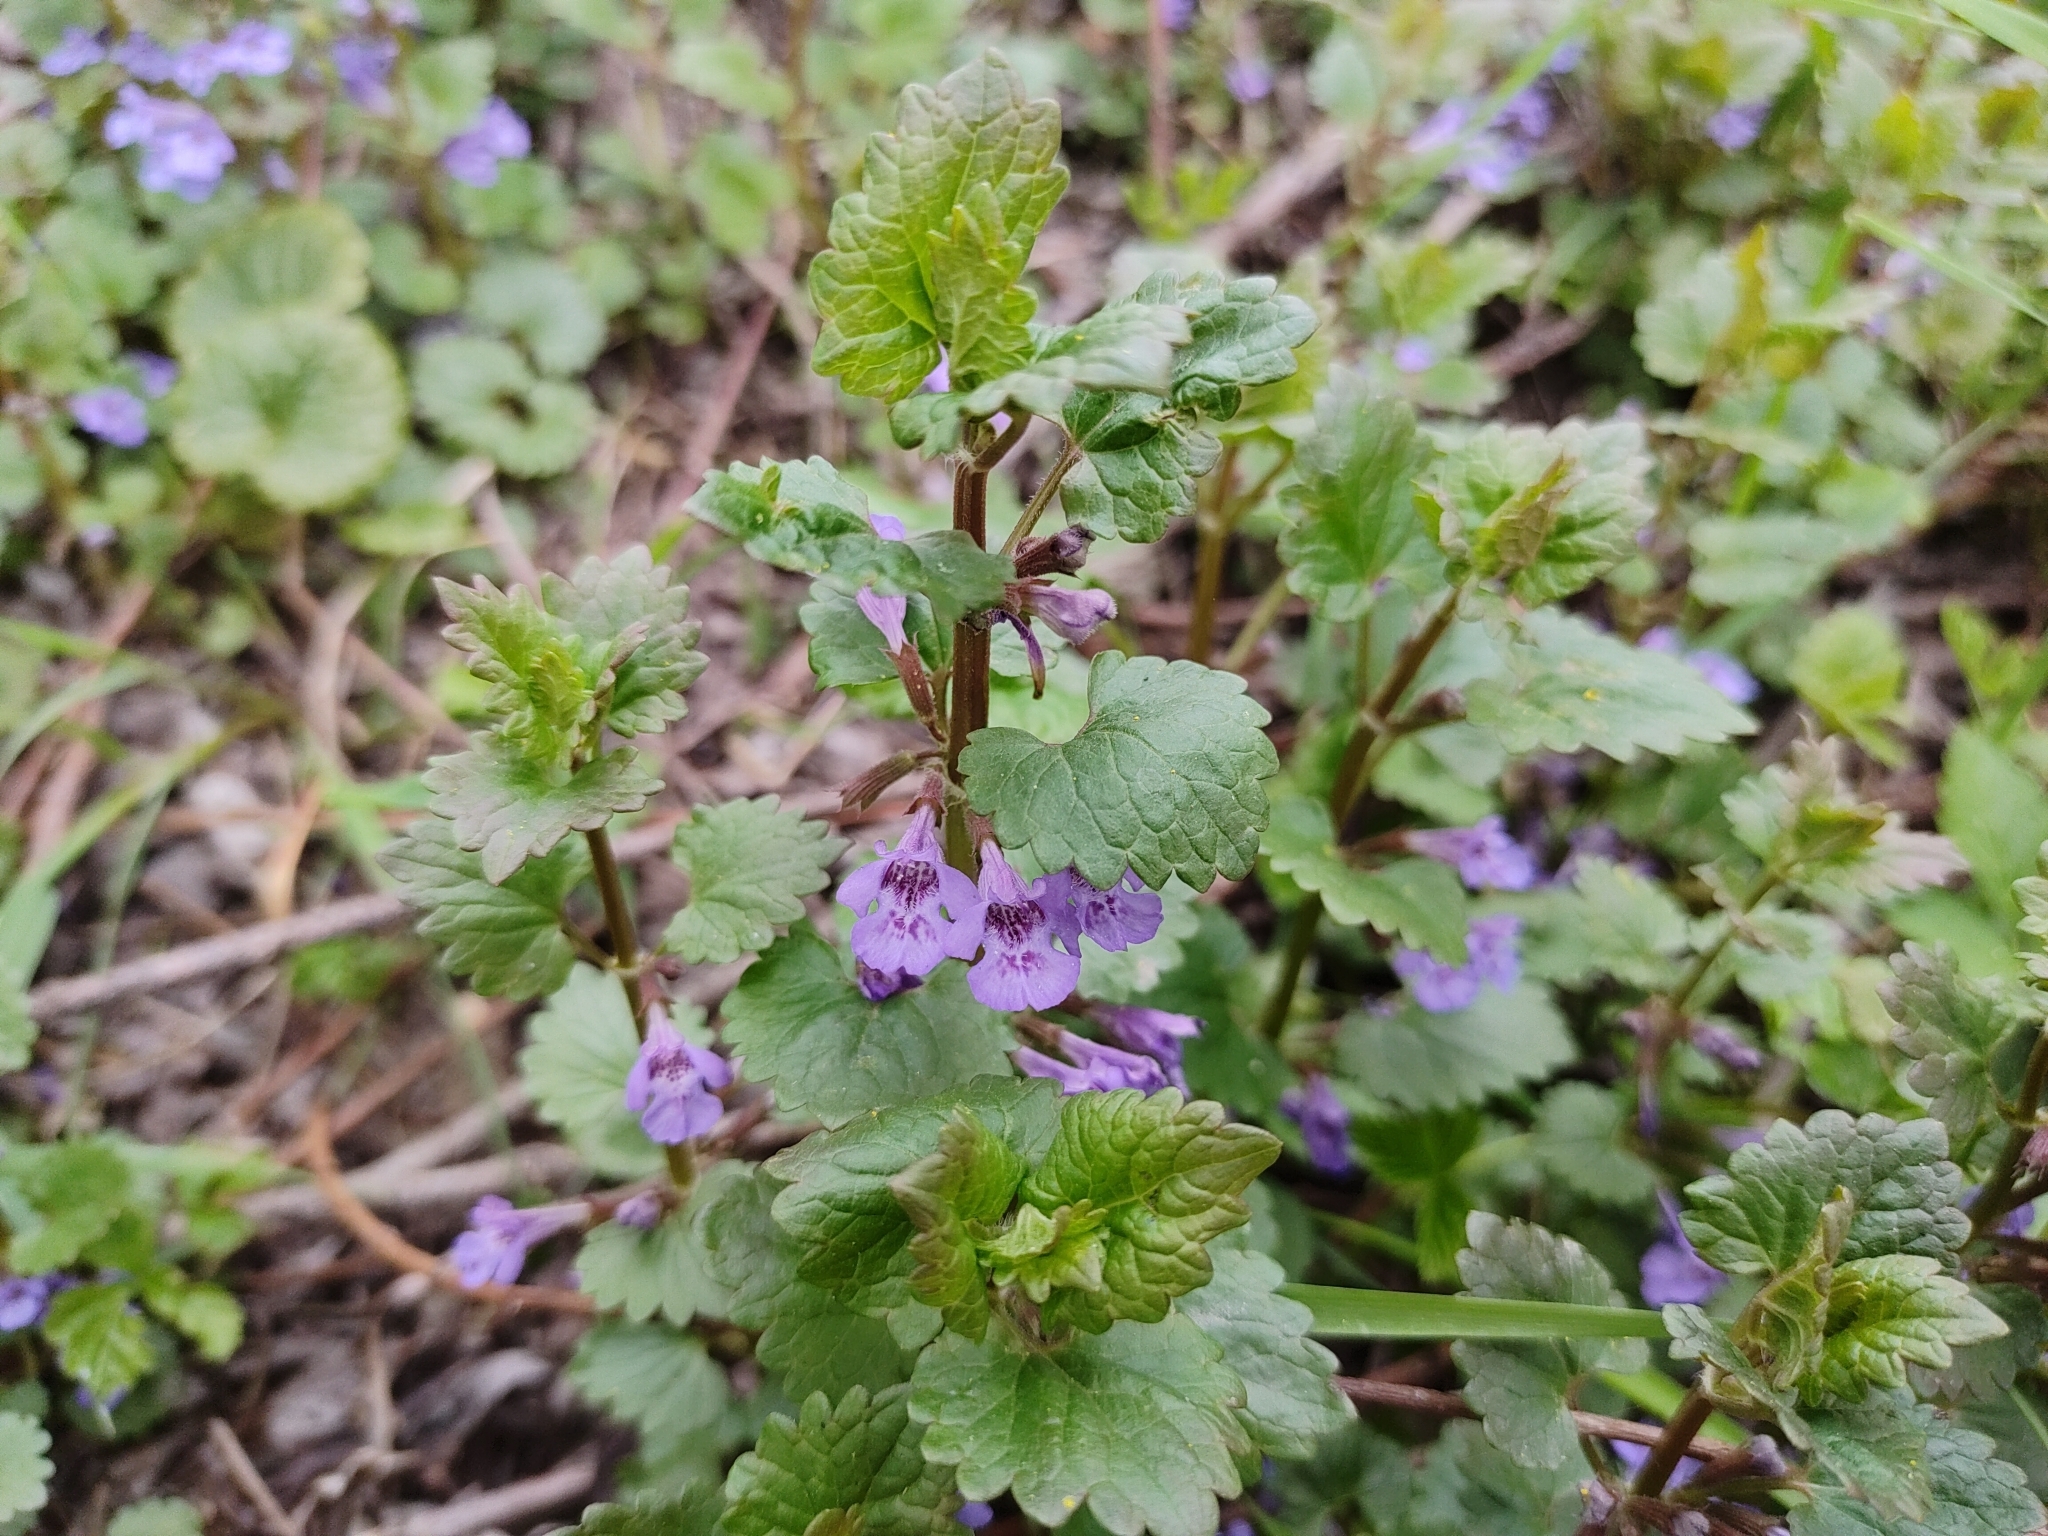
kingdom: Plantae
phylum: Tracheophyta
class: Magnoliopsida
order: Lamiales
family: Lamiaceae
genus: Glechoma
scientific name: Glechoma hederacea
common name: Ground ivy
